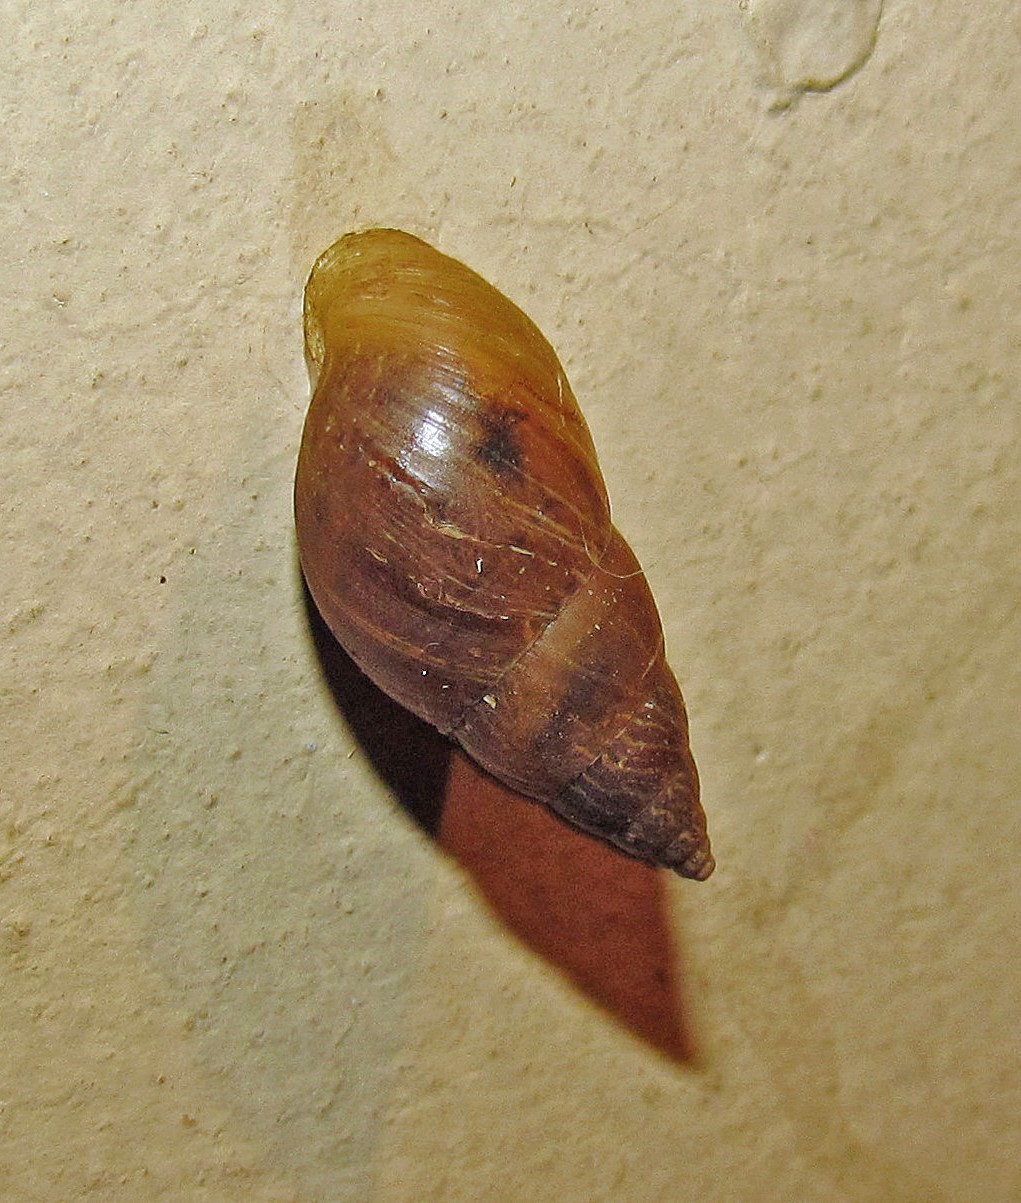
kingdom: Animalia
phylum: Mollusca
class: Gastropoda
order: Stylommatophora
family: Bulimulidae
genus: Bulimulus
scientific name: Bulimulus bonariensis
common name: Snail
